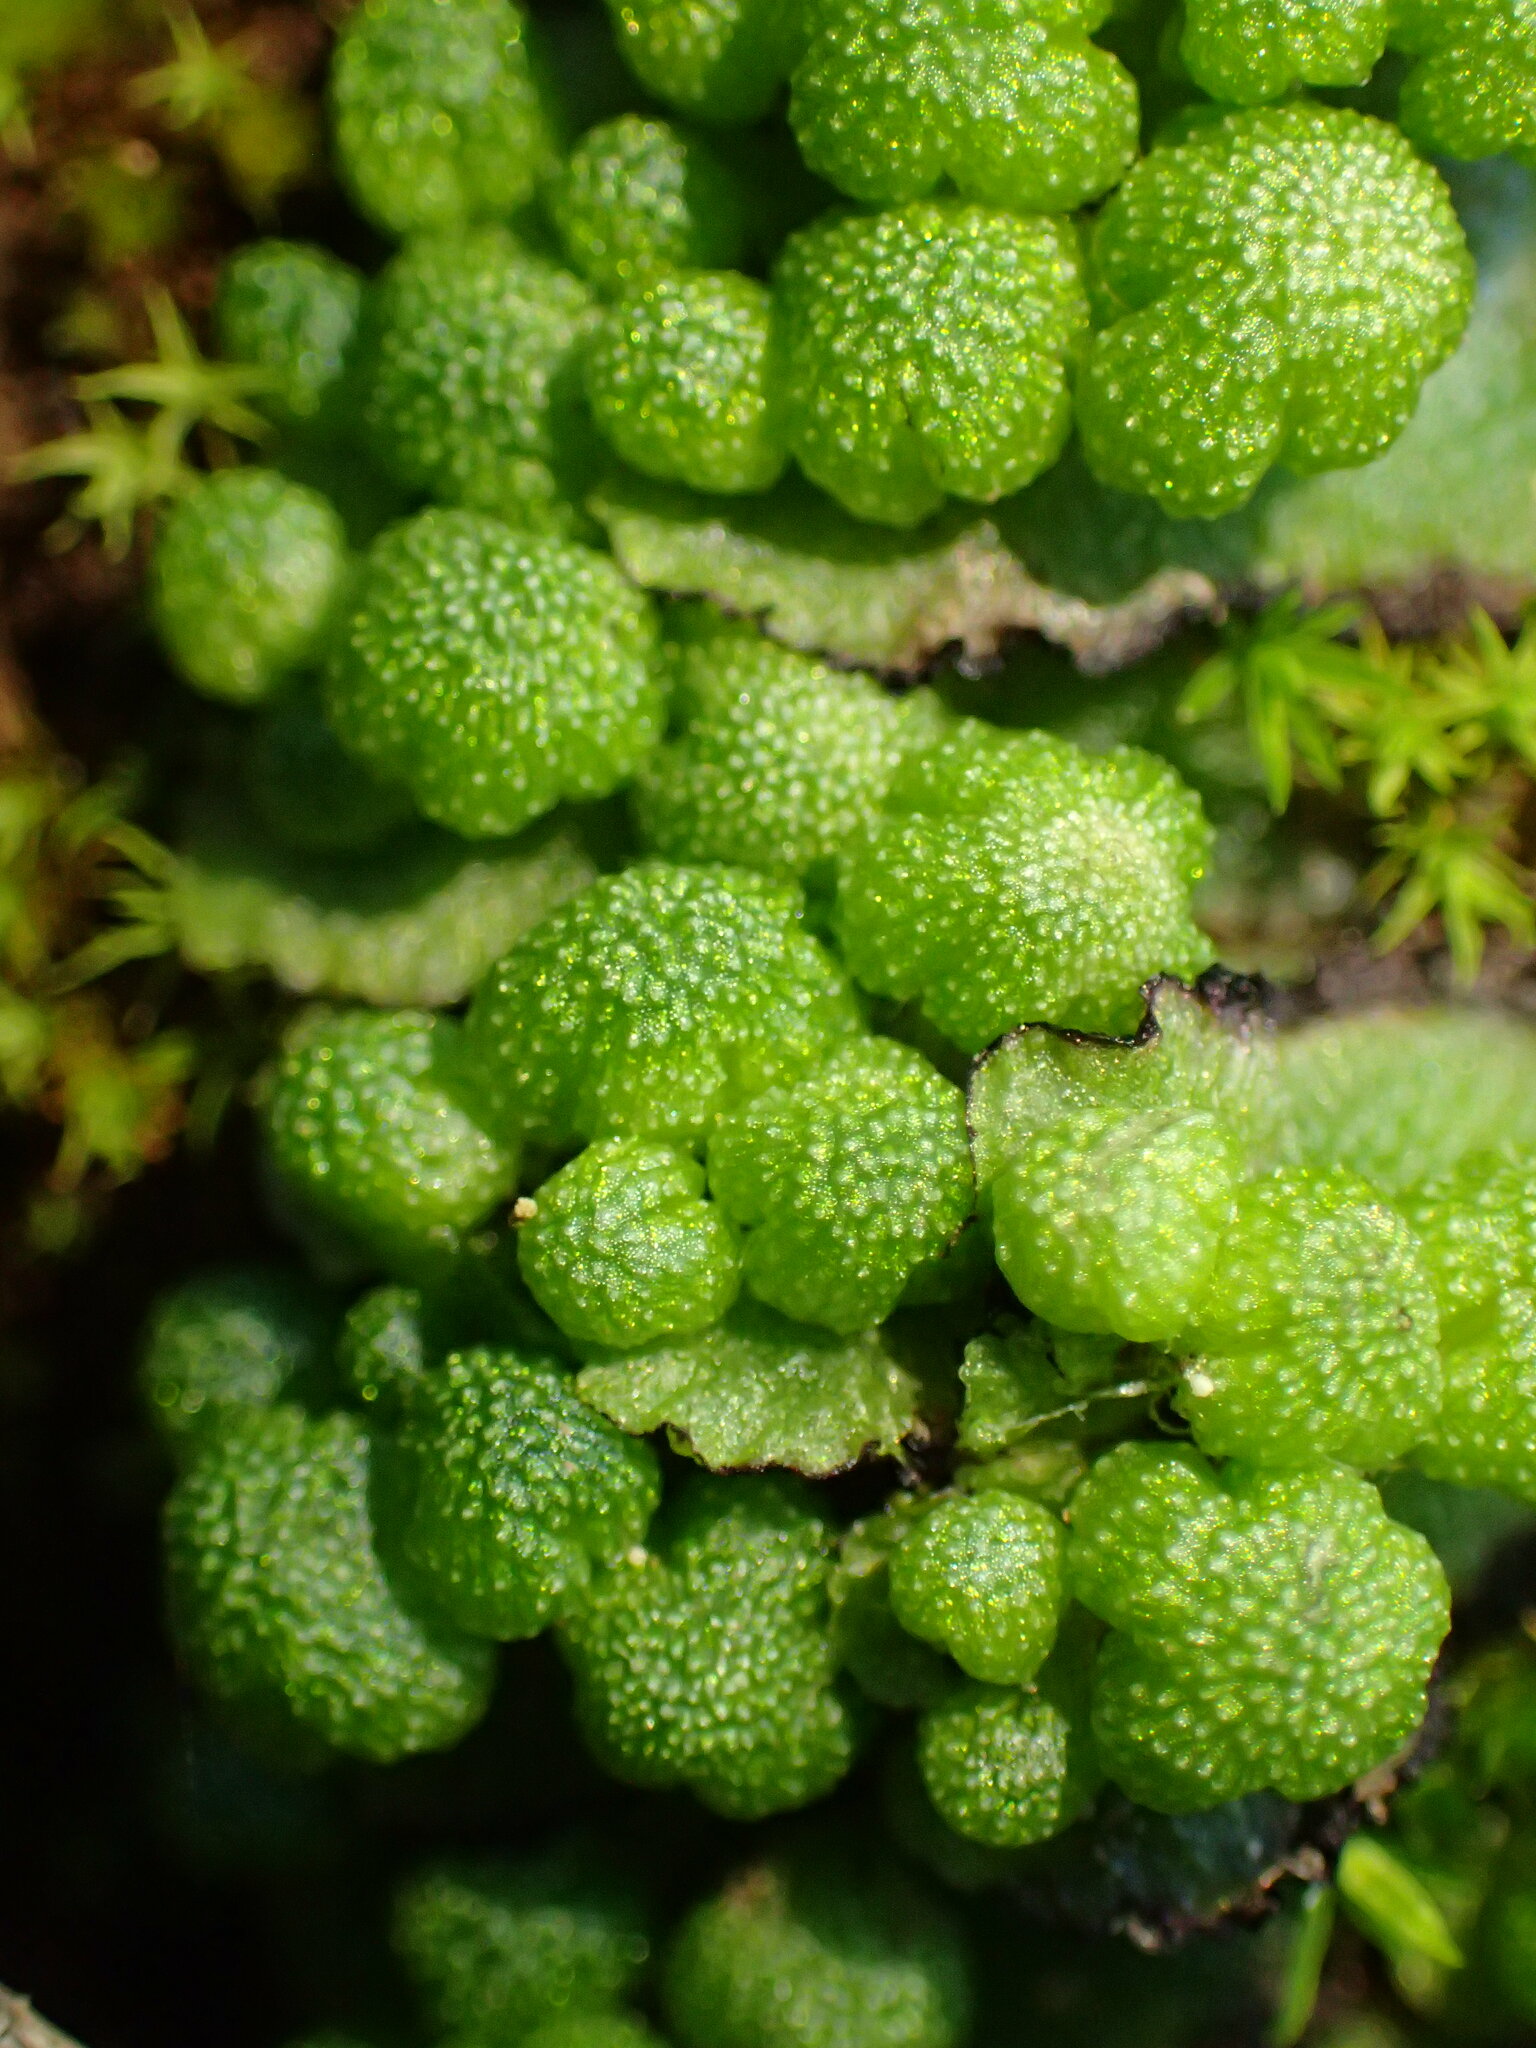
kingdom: Plantae
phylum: Marchantiophyta
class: Marchantiopsida
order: Marchantiales
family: Aytoniaceae
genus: Asterella
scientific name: Asterella californica
